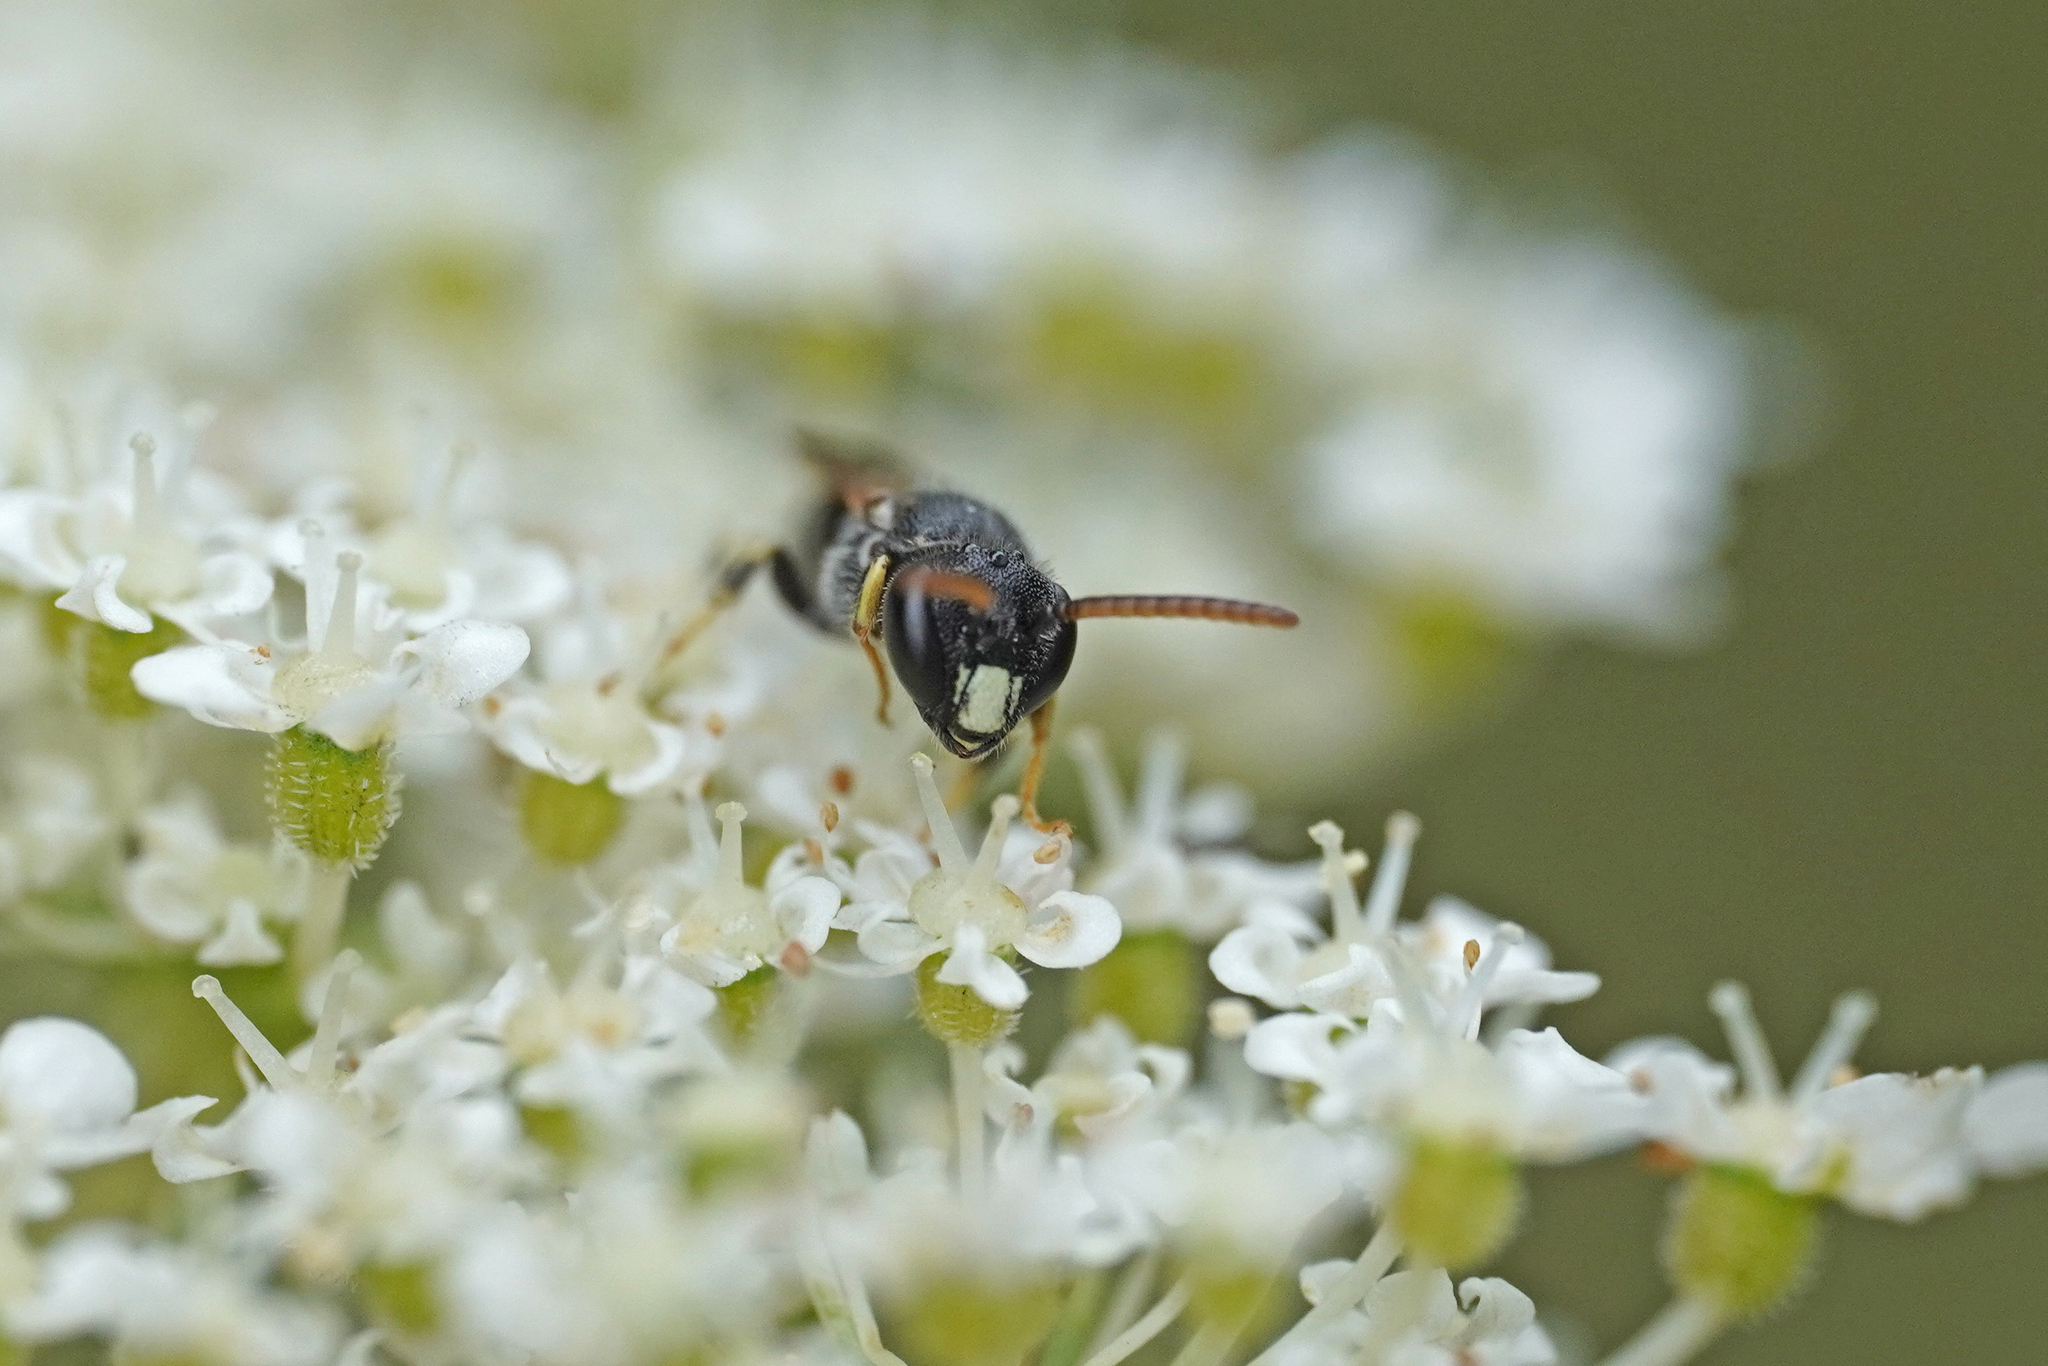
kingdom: Animalia
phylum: Arthropoda
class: Insecta
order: Hymenoptera
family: Colletidae
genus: Hylaeus
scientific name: Hylaeus punctatus
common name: Punctate masked bee
